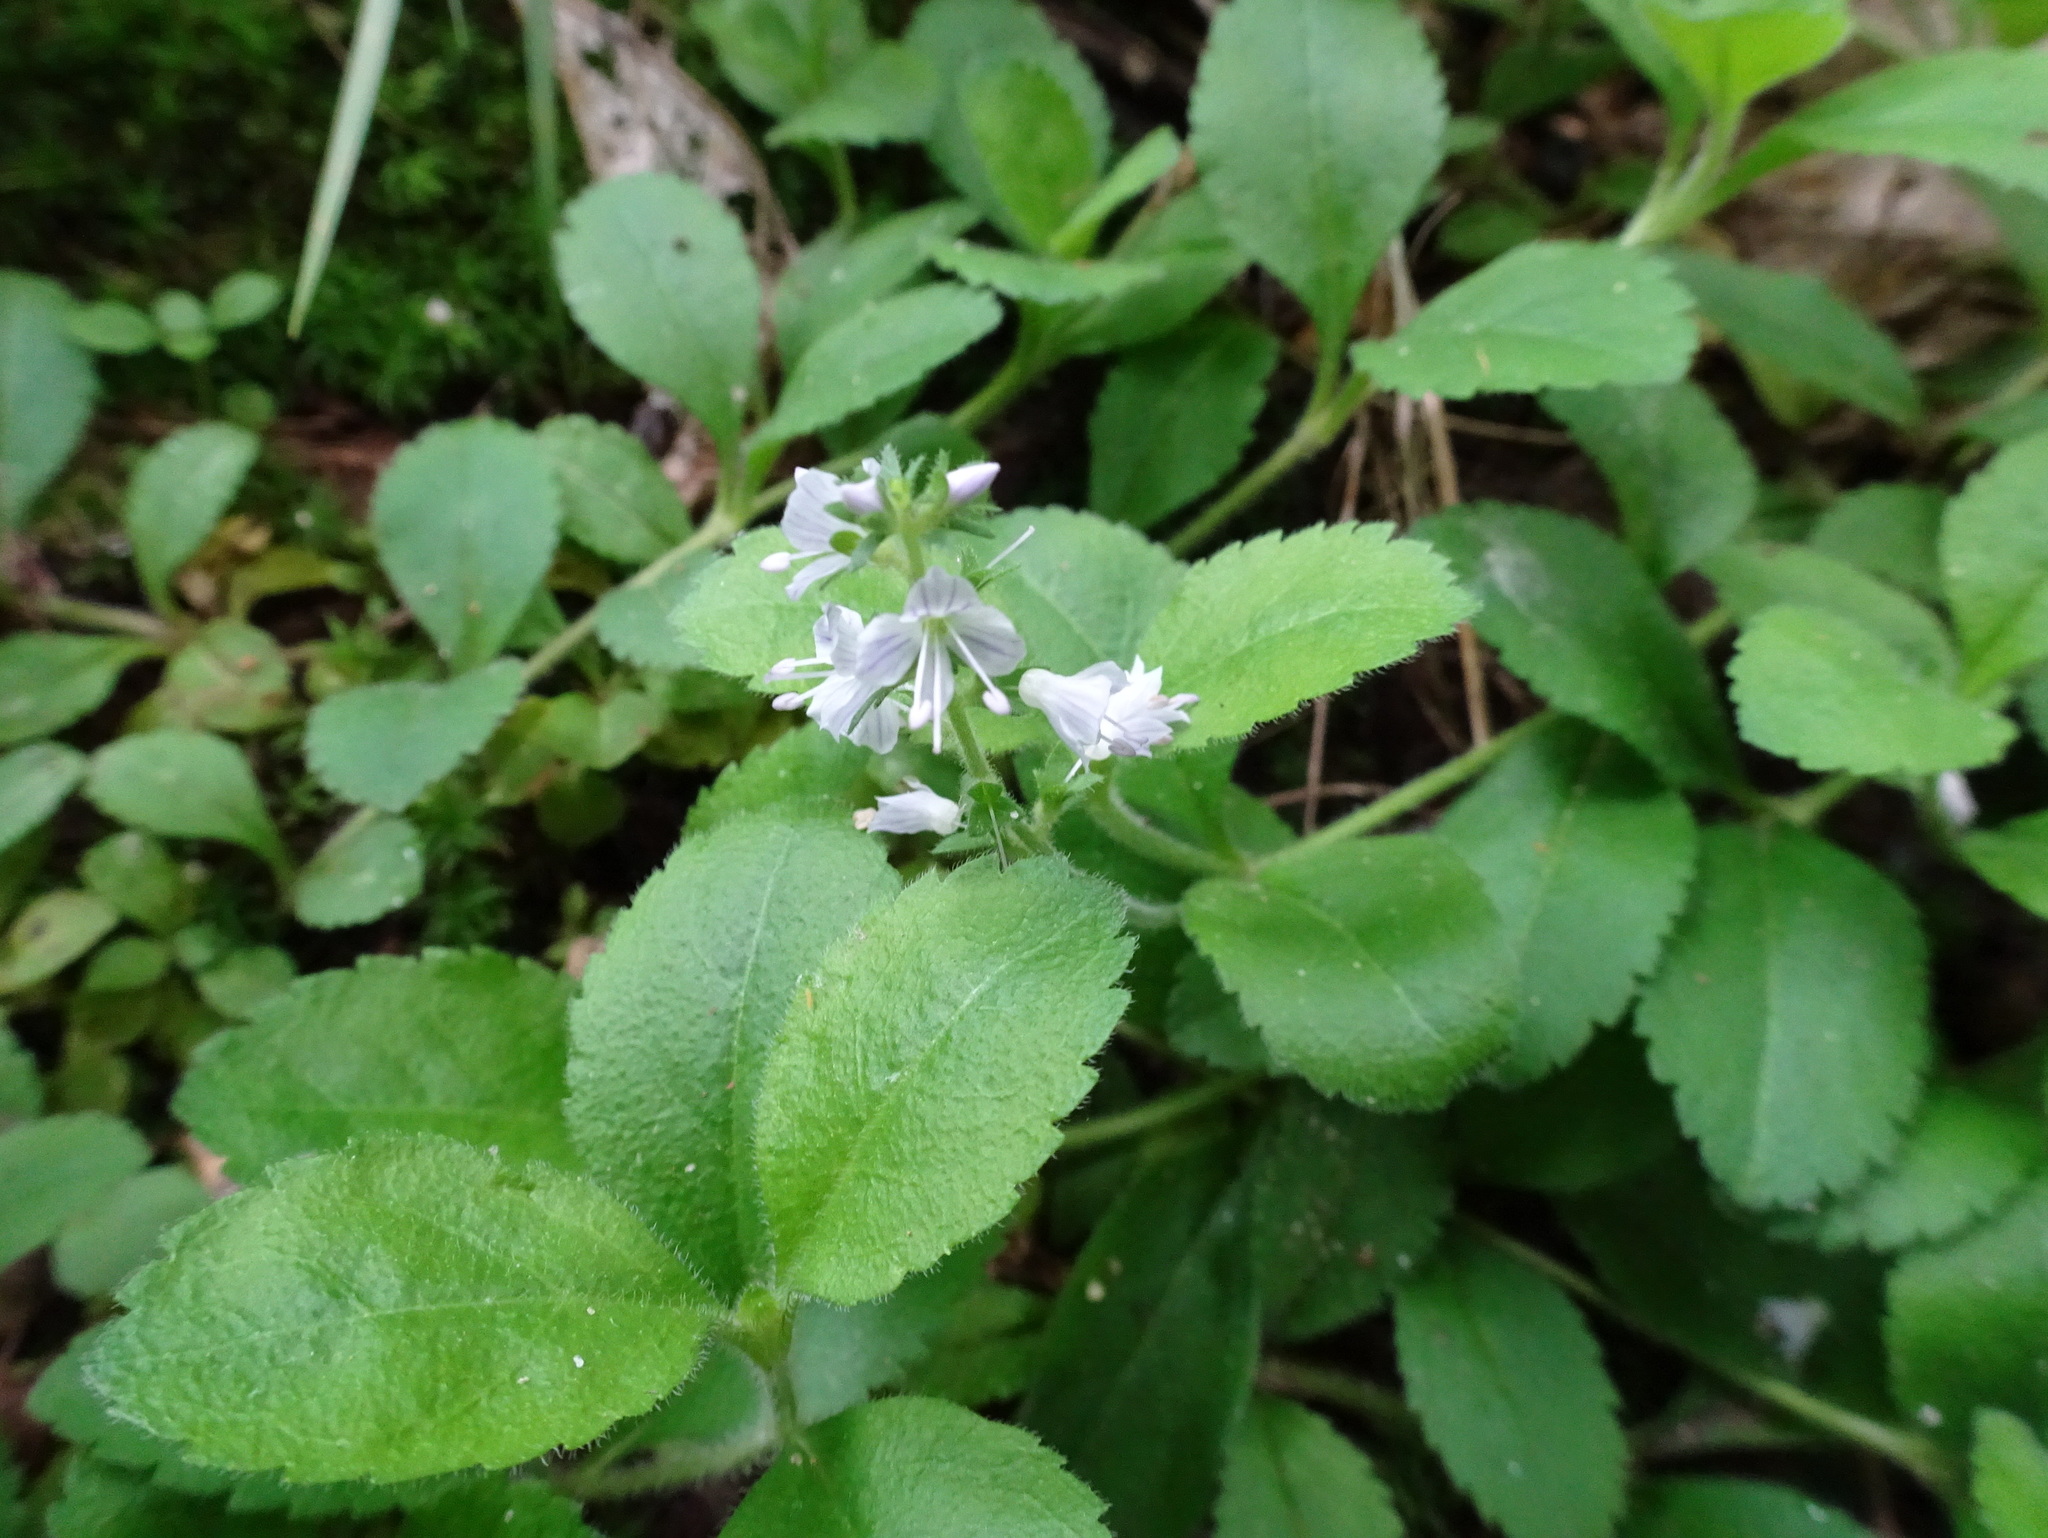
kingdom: Plantae
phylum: Tracheophyta
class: Magnoliopsida
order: Lamiales
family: Plantaginaceae
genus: Veronica
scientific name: Veronica officinalis
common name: Common speedwell
